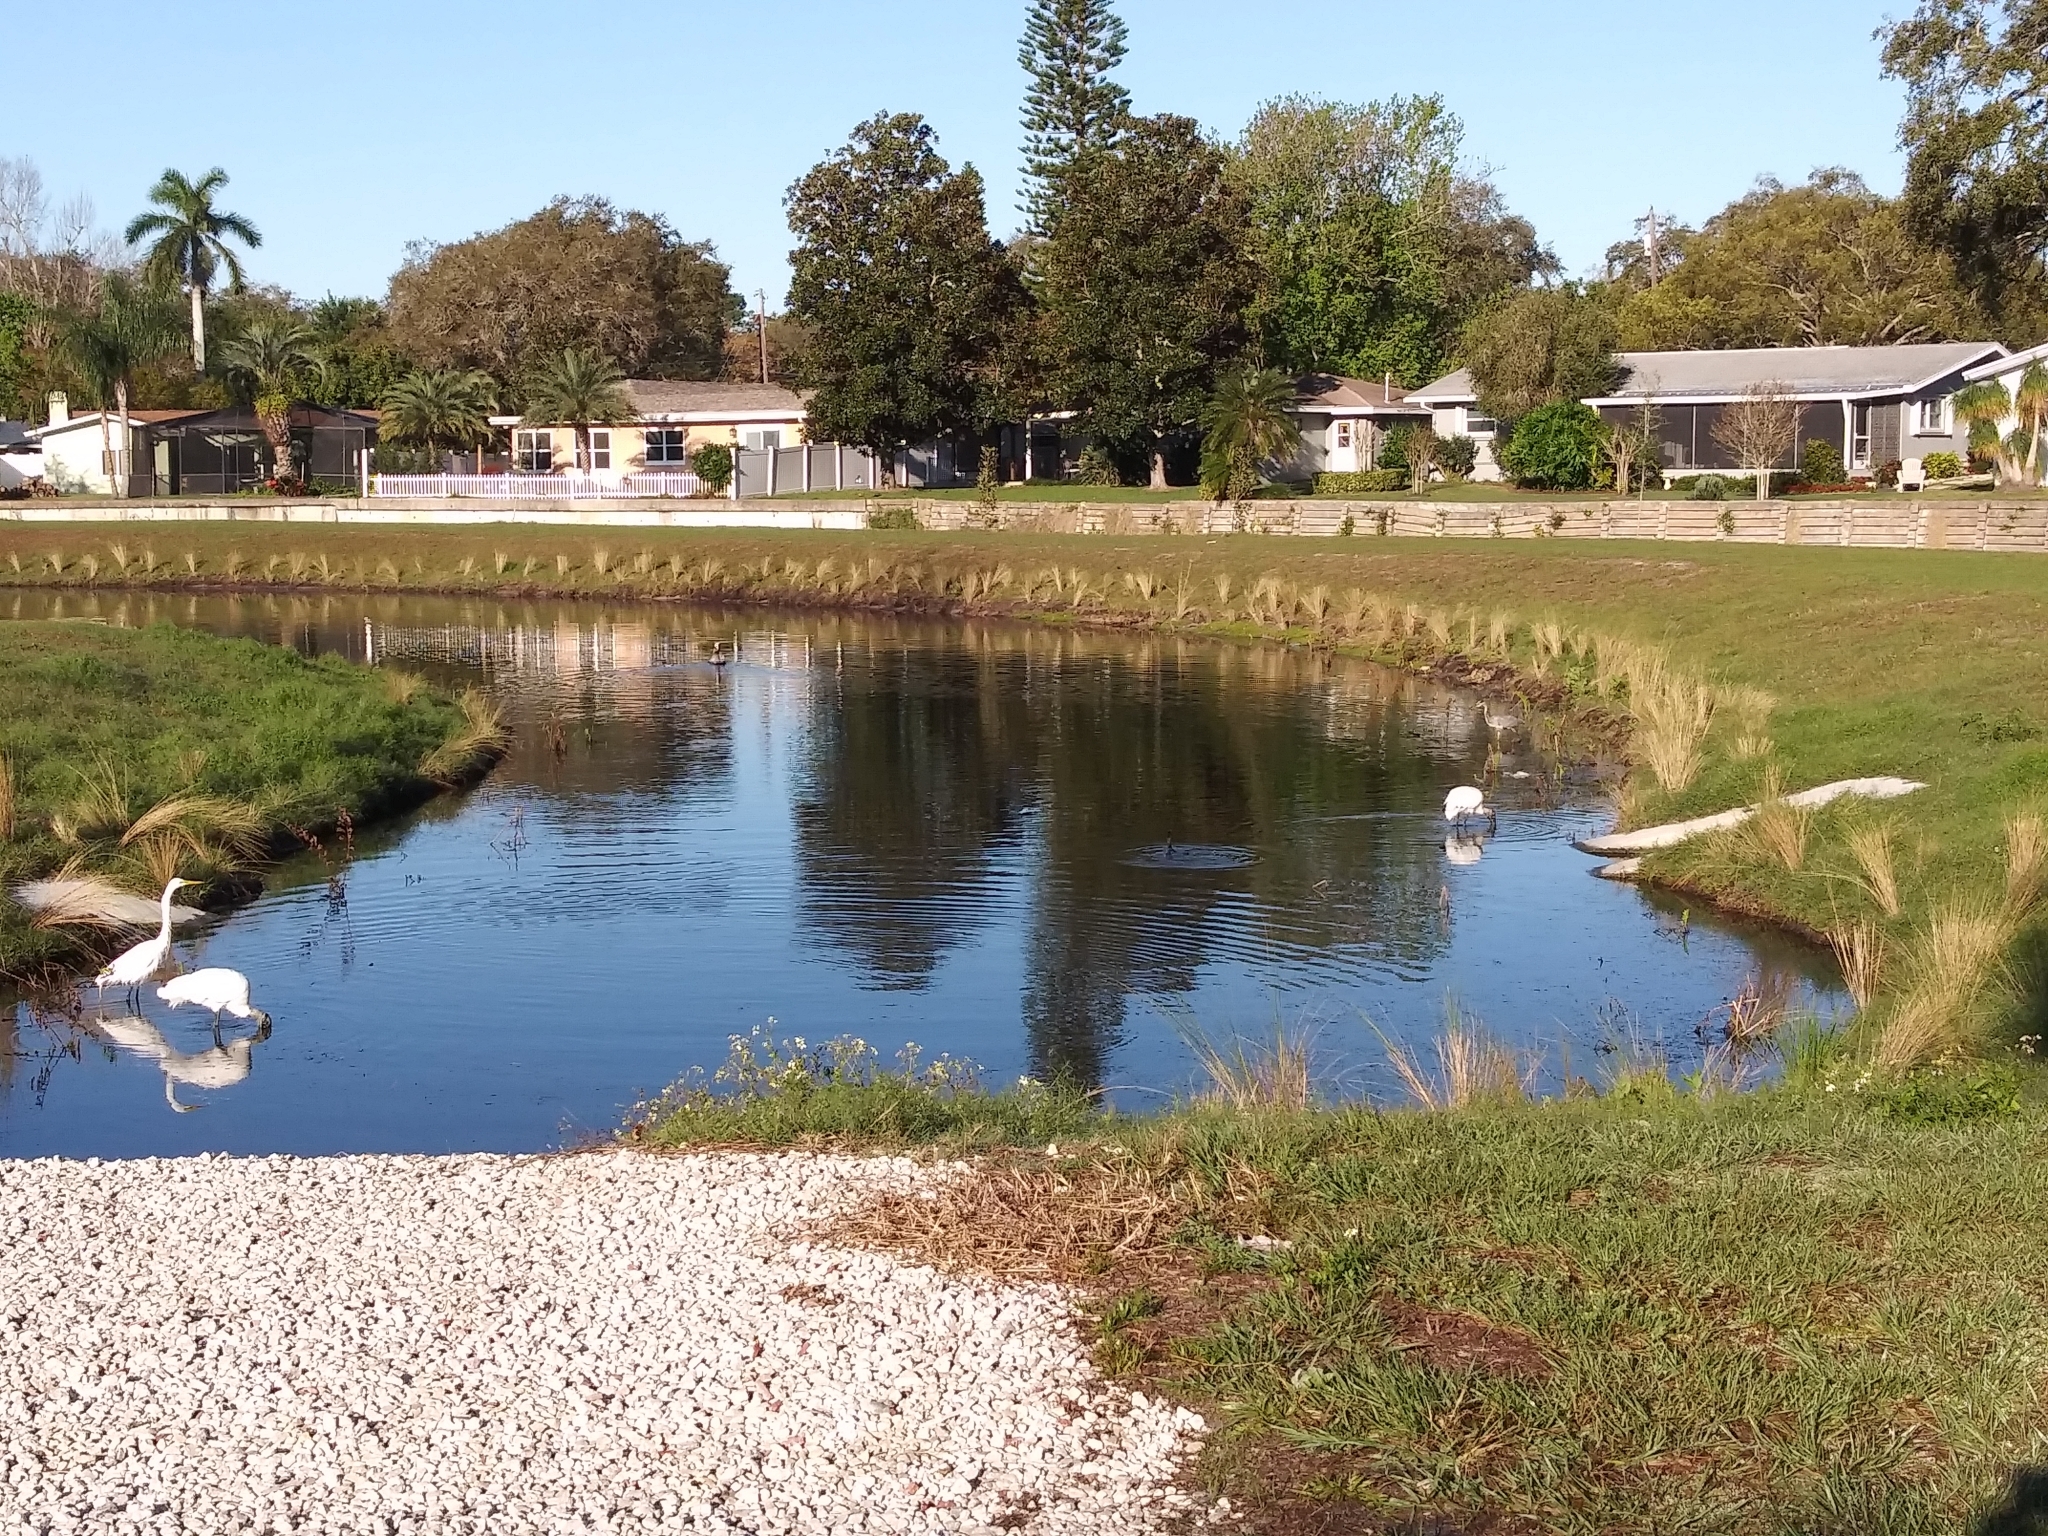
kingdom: Animalia
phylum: Chordata
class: Aves
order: Pelecaniformes
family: Ardeidae
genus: Ardea
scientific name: Ardea herodias
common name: Great blue heron
